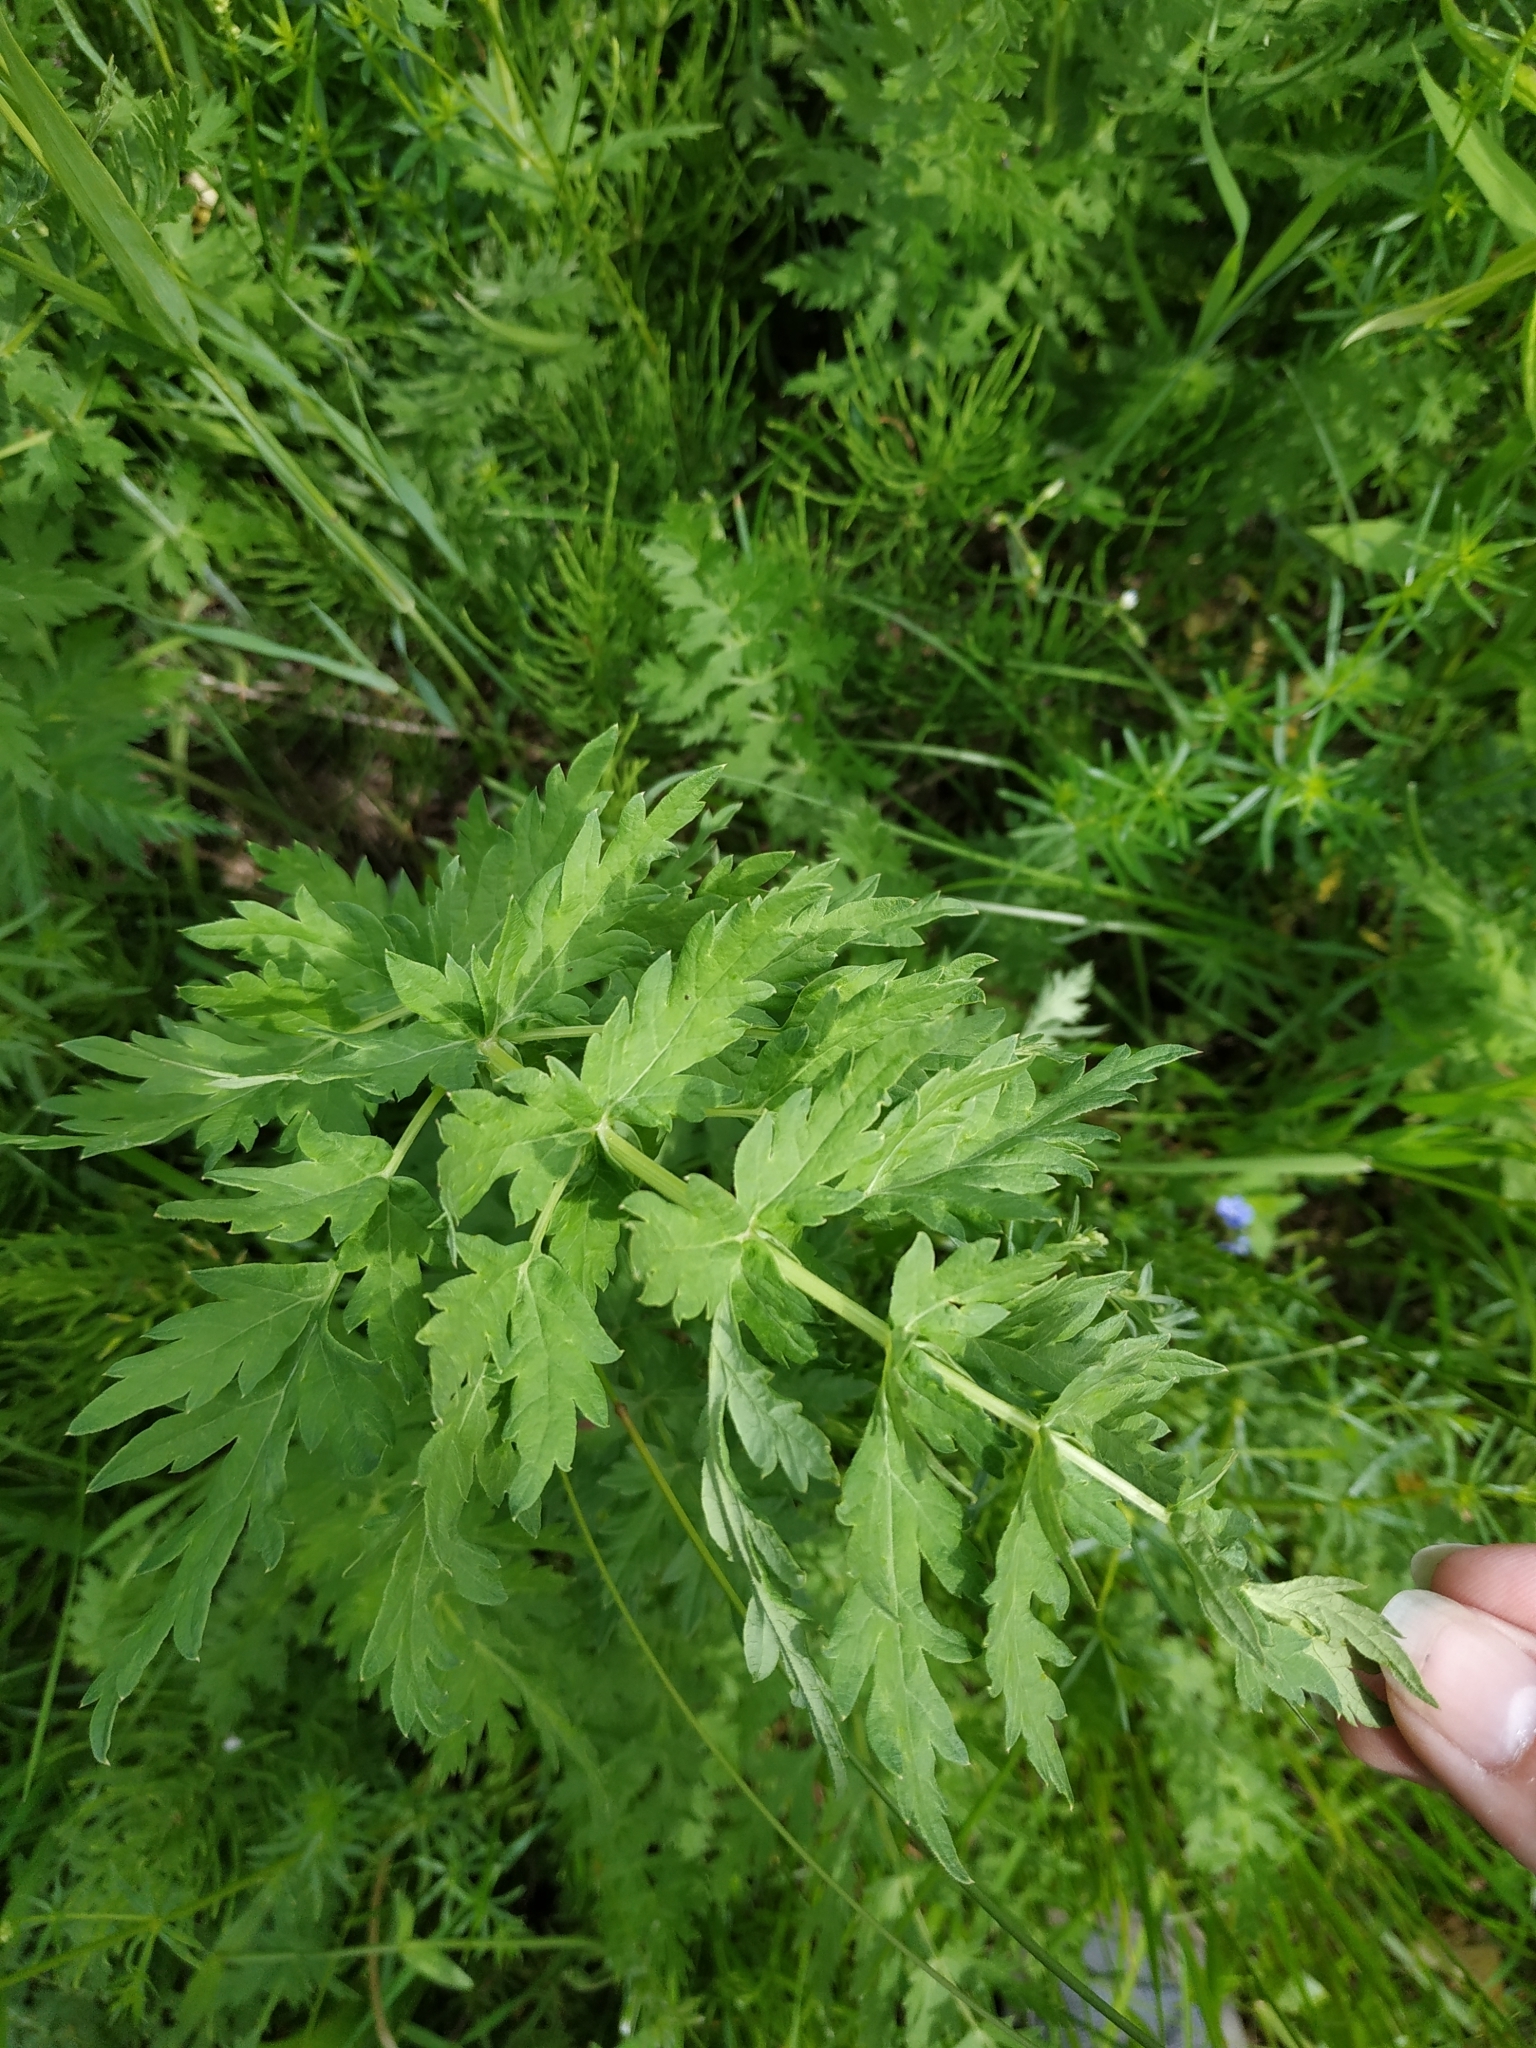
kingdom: Plantae
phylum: Tracheophyta
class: Magnoliopsida
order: Apiales
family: Apiaceae
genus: Seseli
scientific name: Seseli libanotis
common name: Mooncarrot
